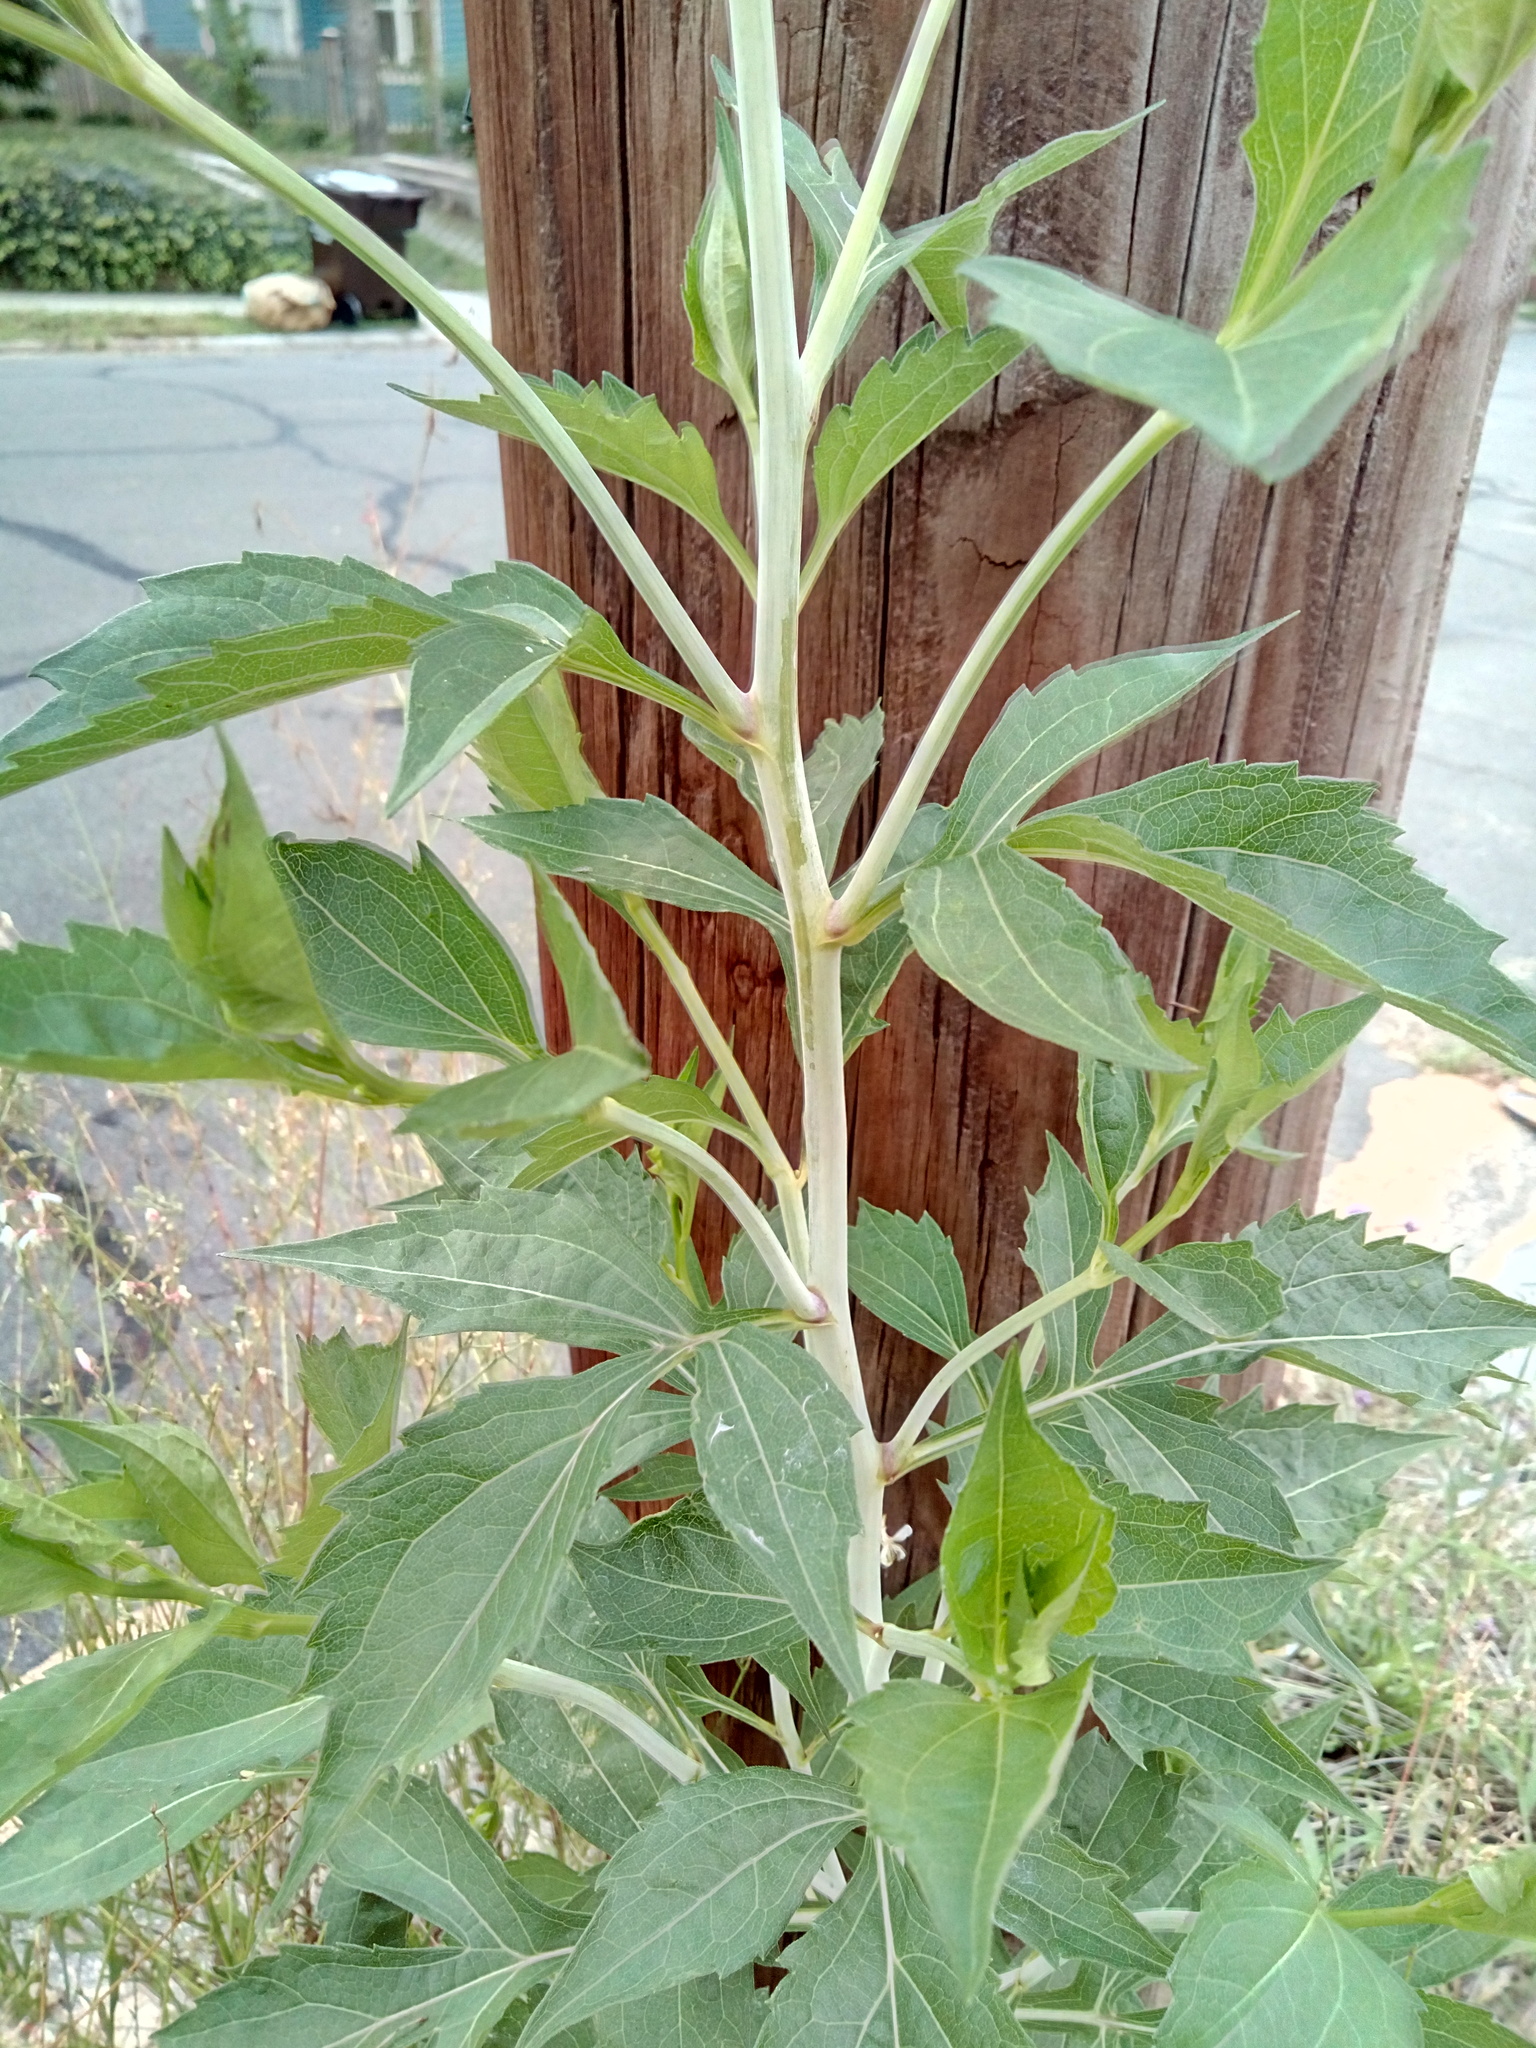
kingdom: Plantae
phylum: Tracheophyta
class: Magnoliopsida
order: Asterales
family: Asteraceae
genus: Rudbeckia
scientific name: Rudbeckia laciniata
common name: Coneflower
